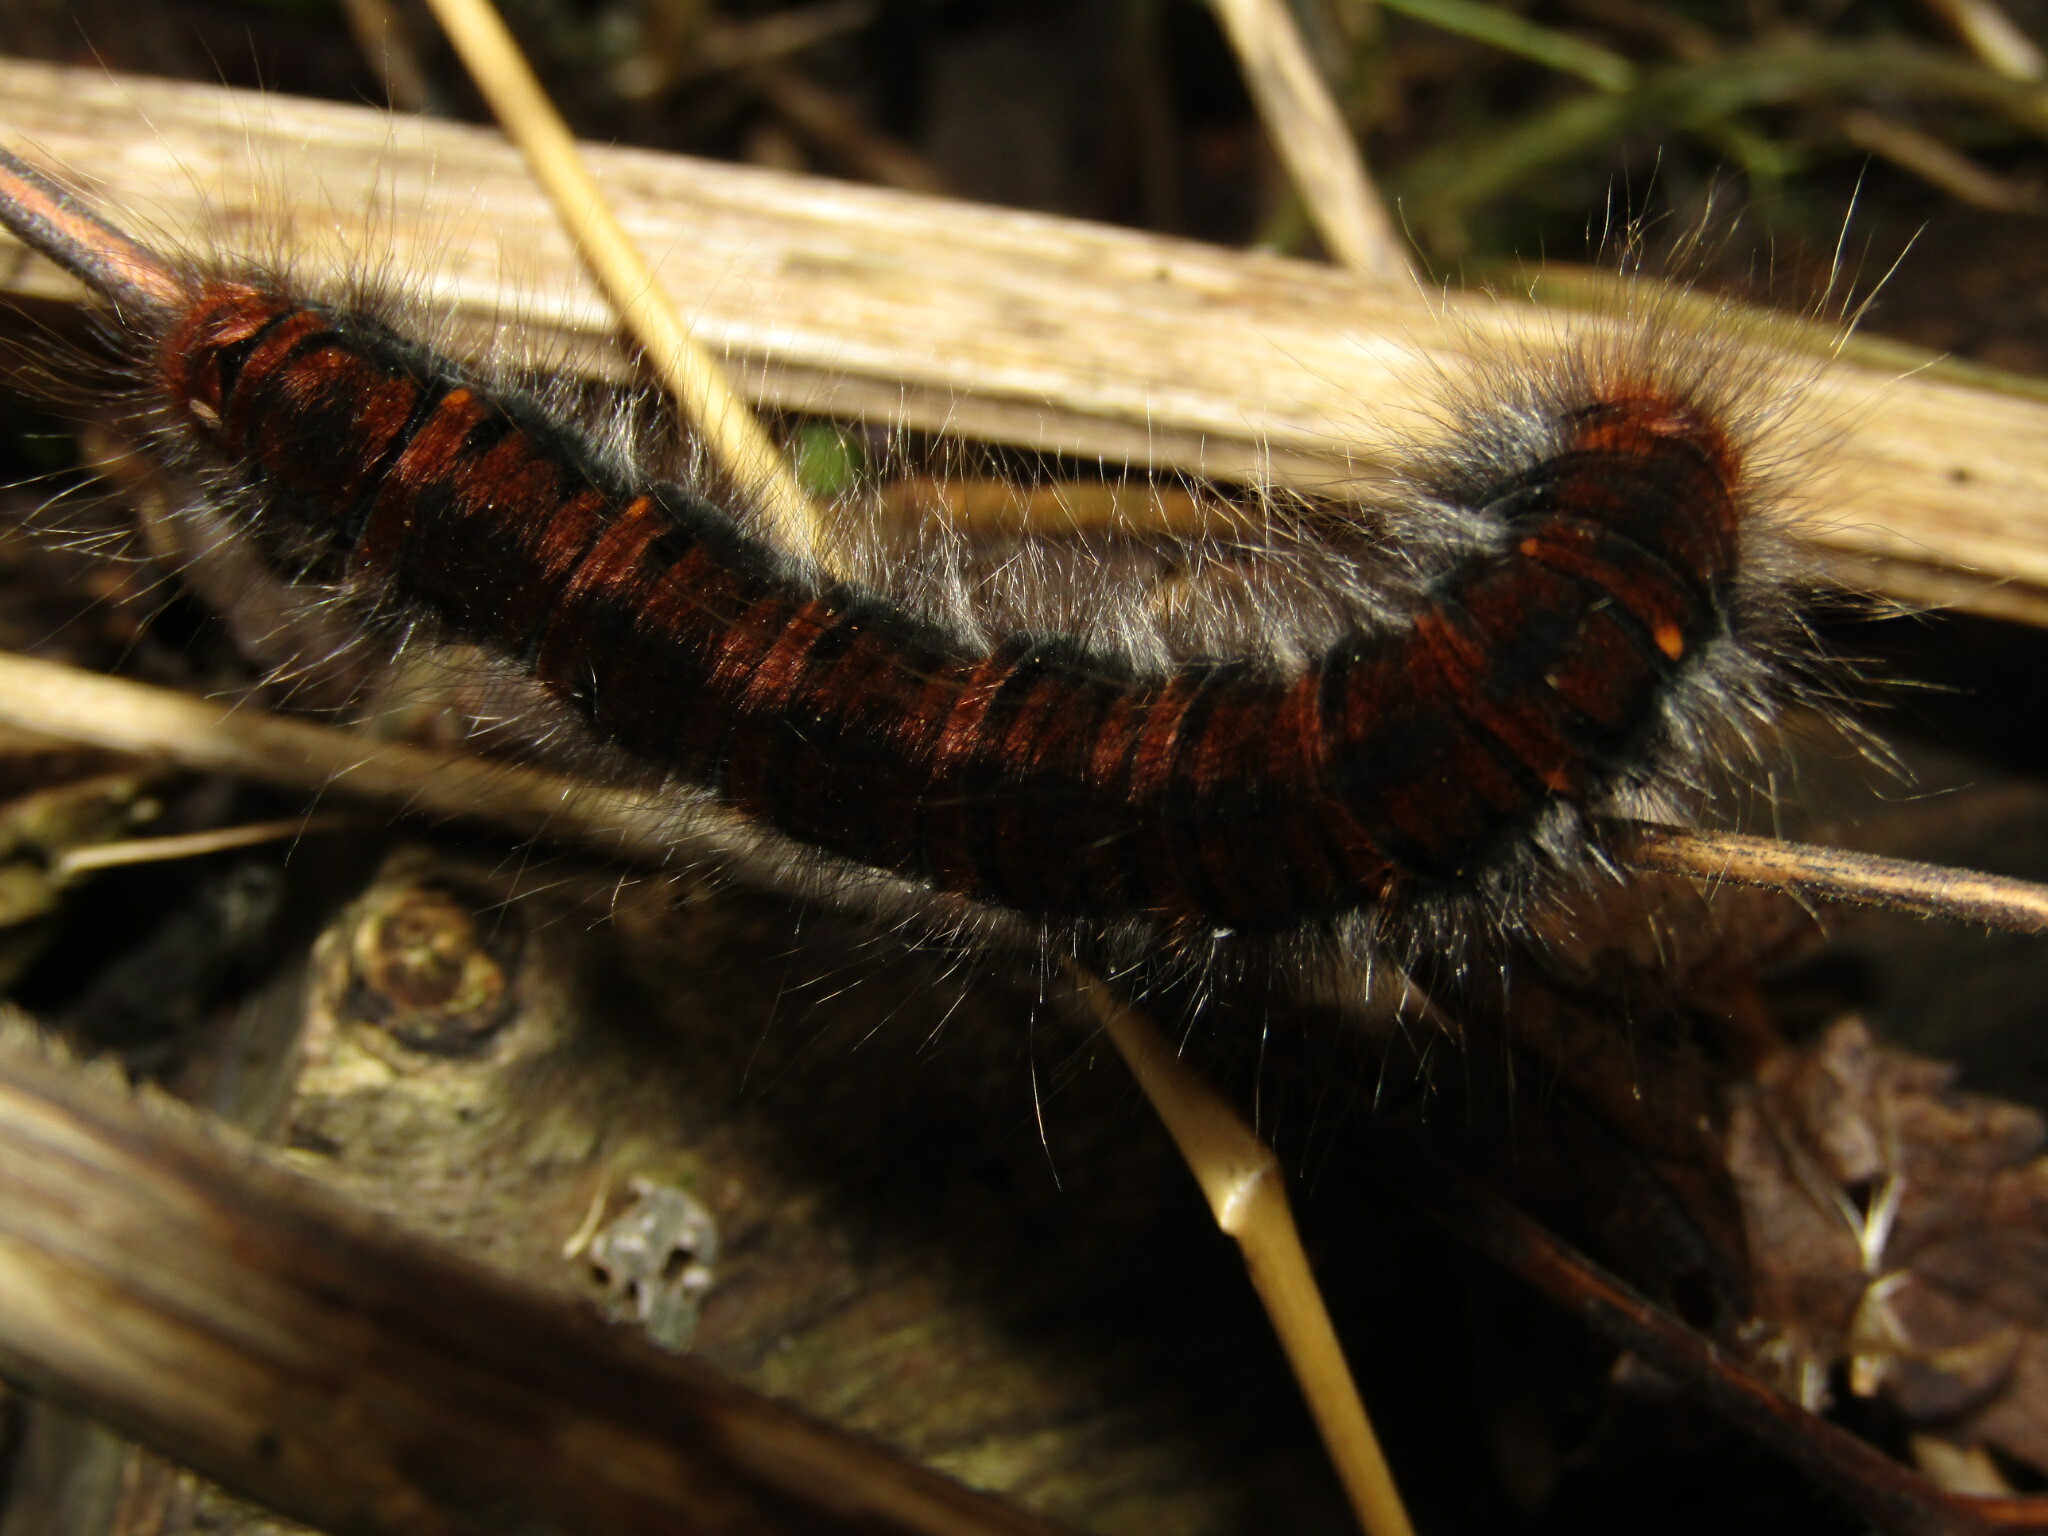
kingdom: Animalia
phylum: Arthropoda
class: Insecta
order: Lepidoptera
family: Lasiocampidae
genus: Macrothylacia
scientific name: Macrothylacia rubi
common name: Fox moth
